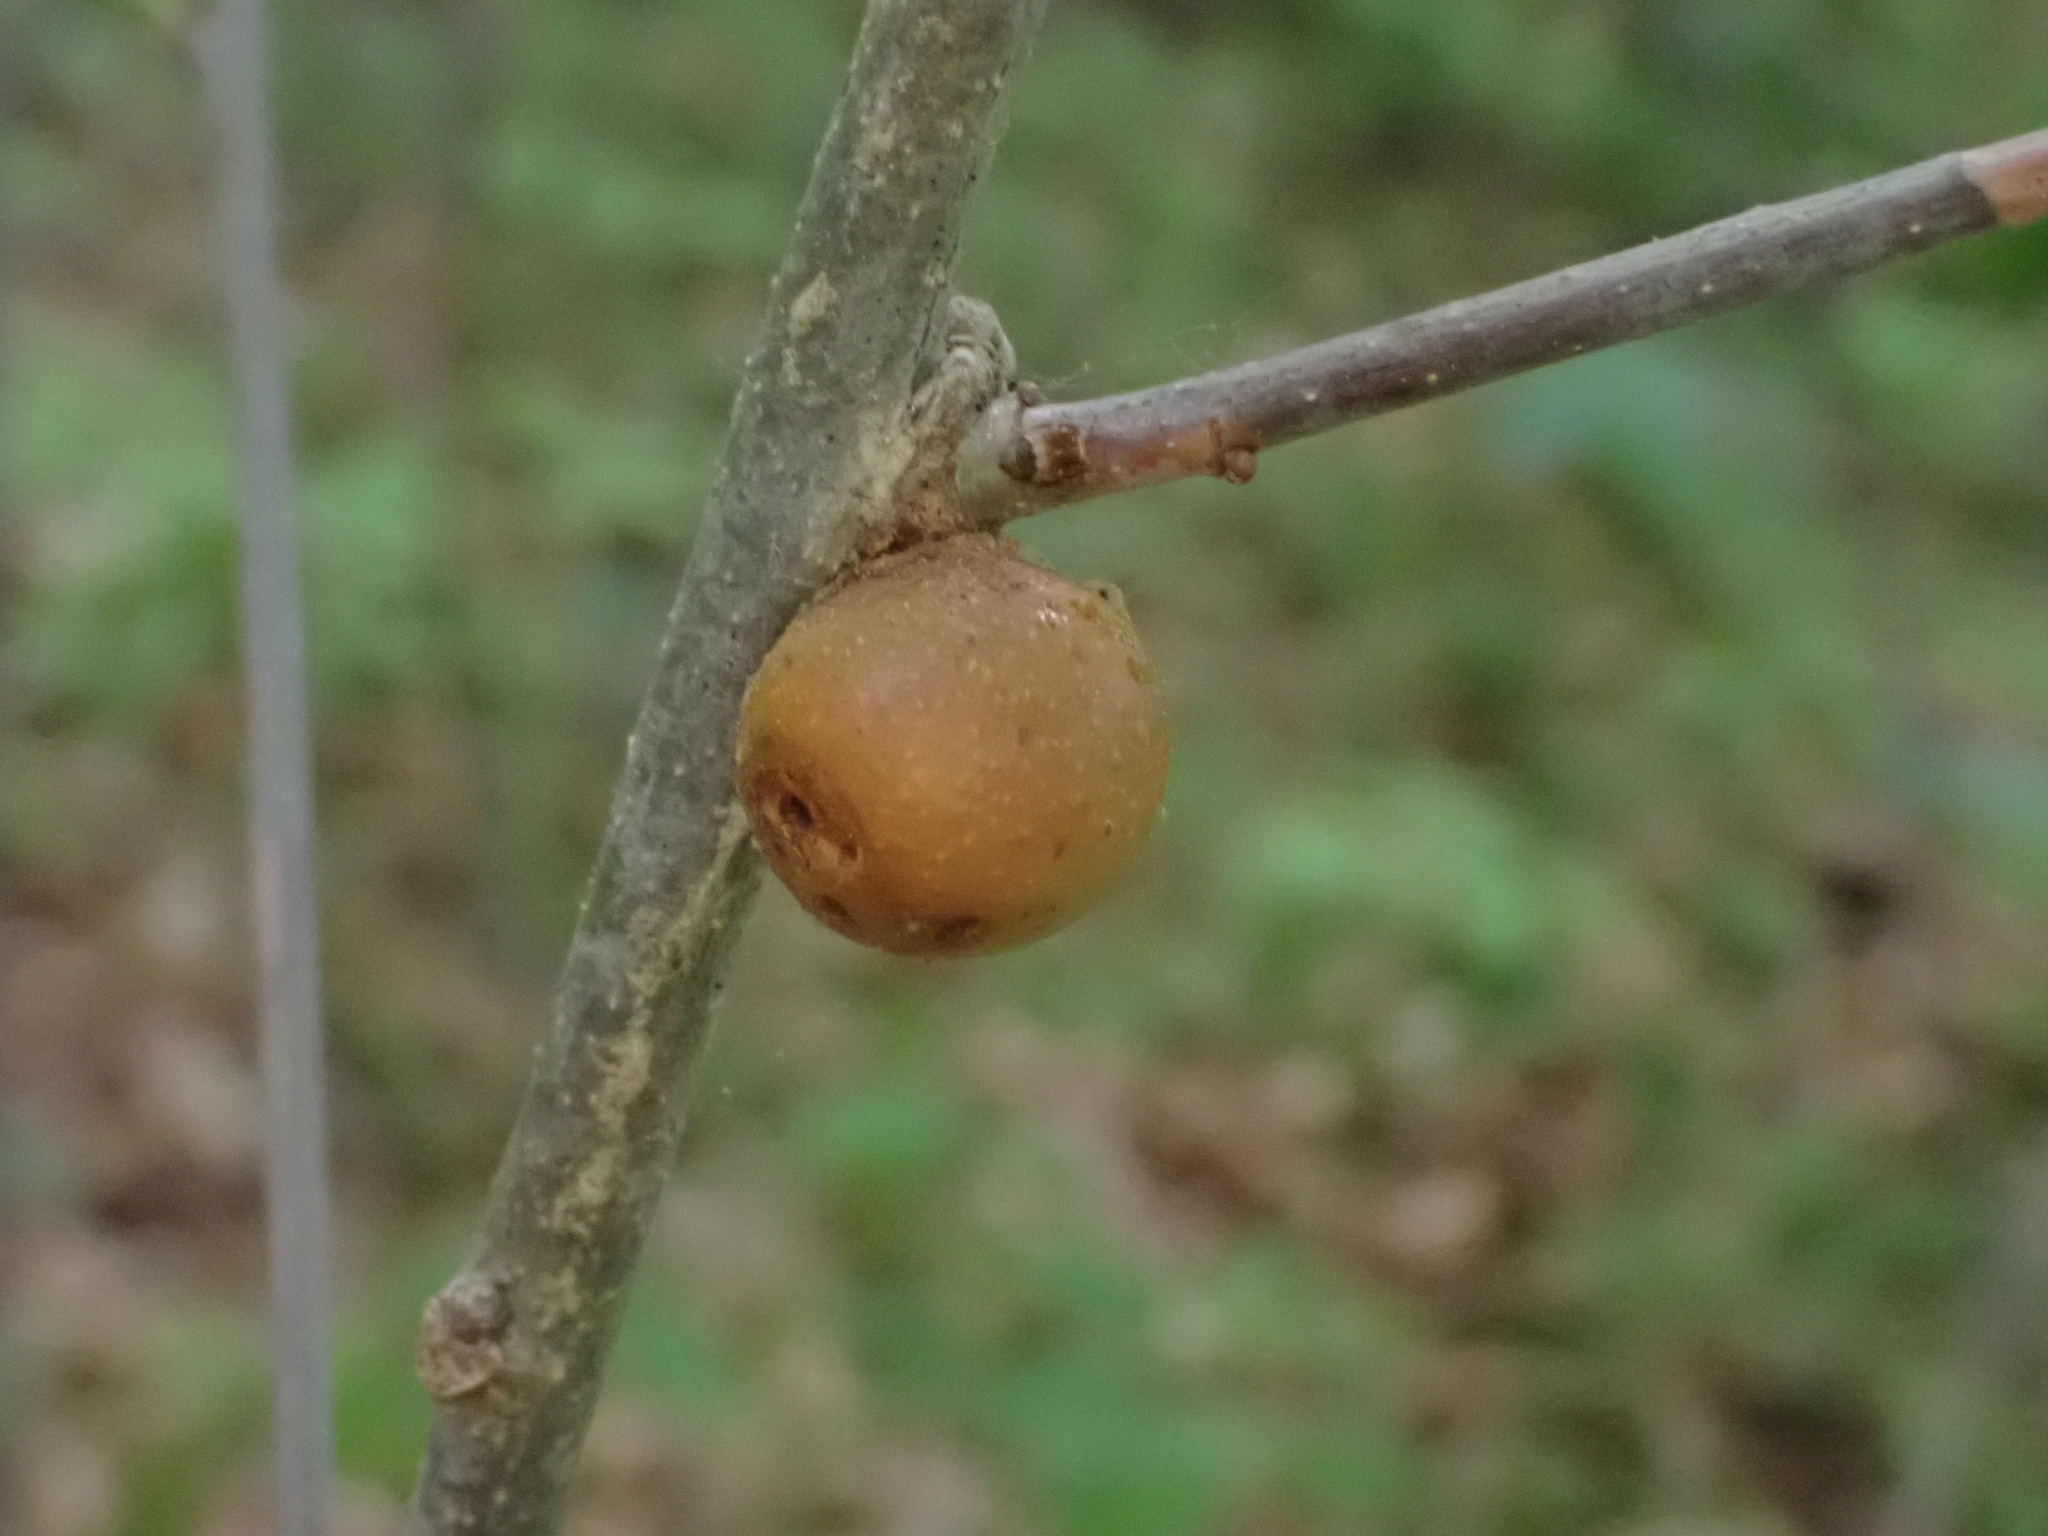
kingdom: Animalia
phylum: Arthropoda
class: Insecta
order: Hymenoptera
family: Cynipidae
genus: Disholcaspis
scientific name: Disholcaspis quercusglobulus
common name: Round bullet gall wasp
